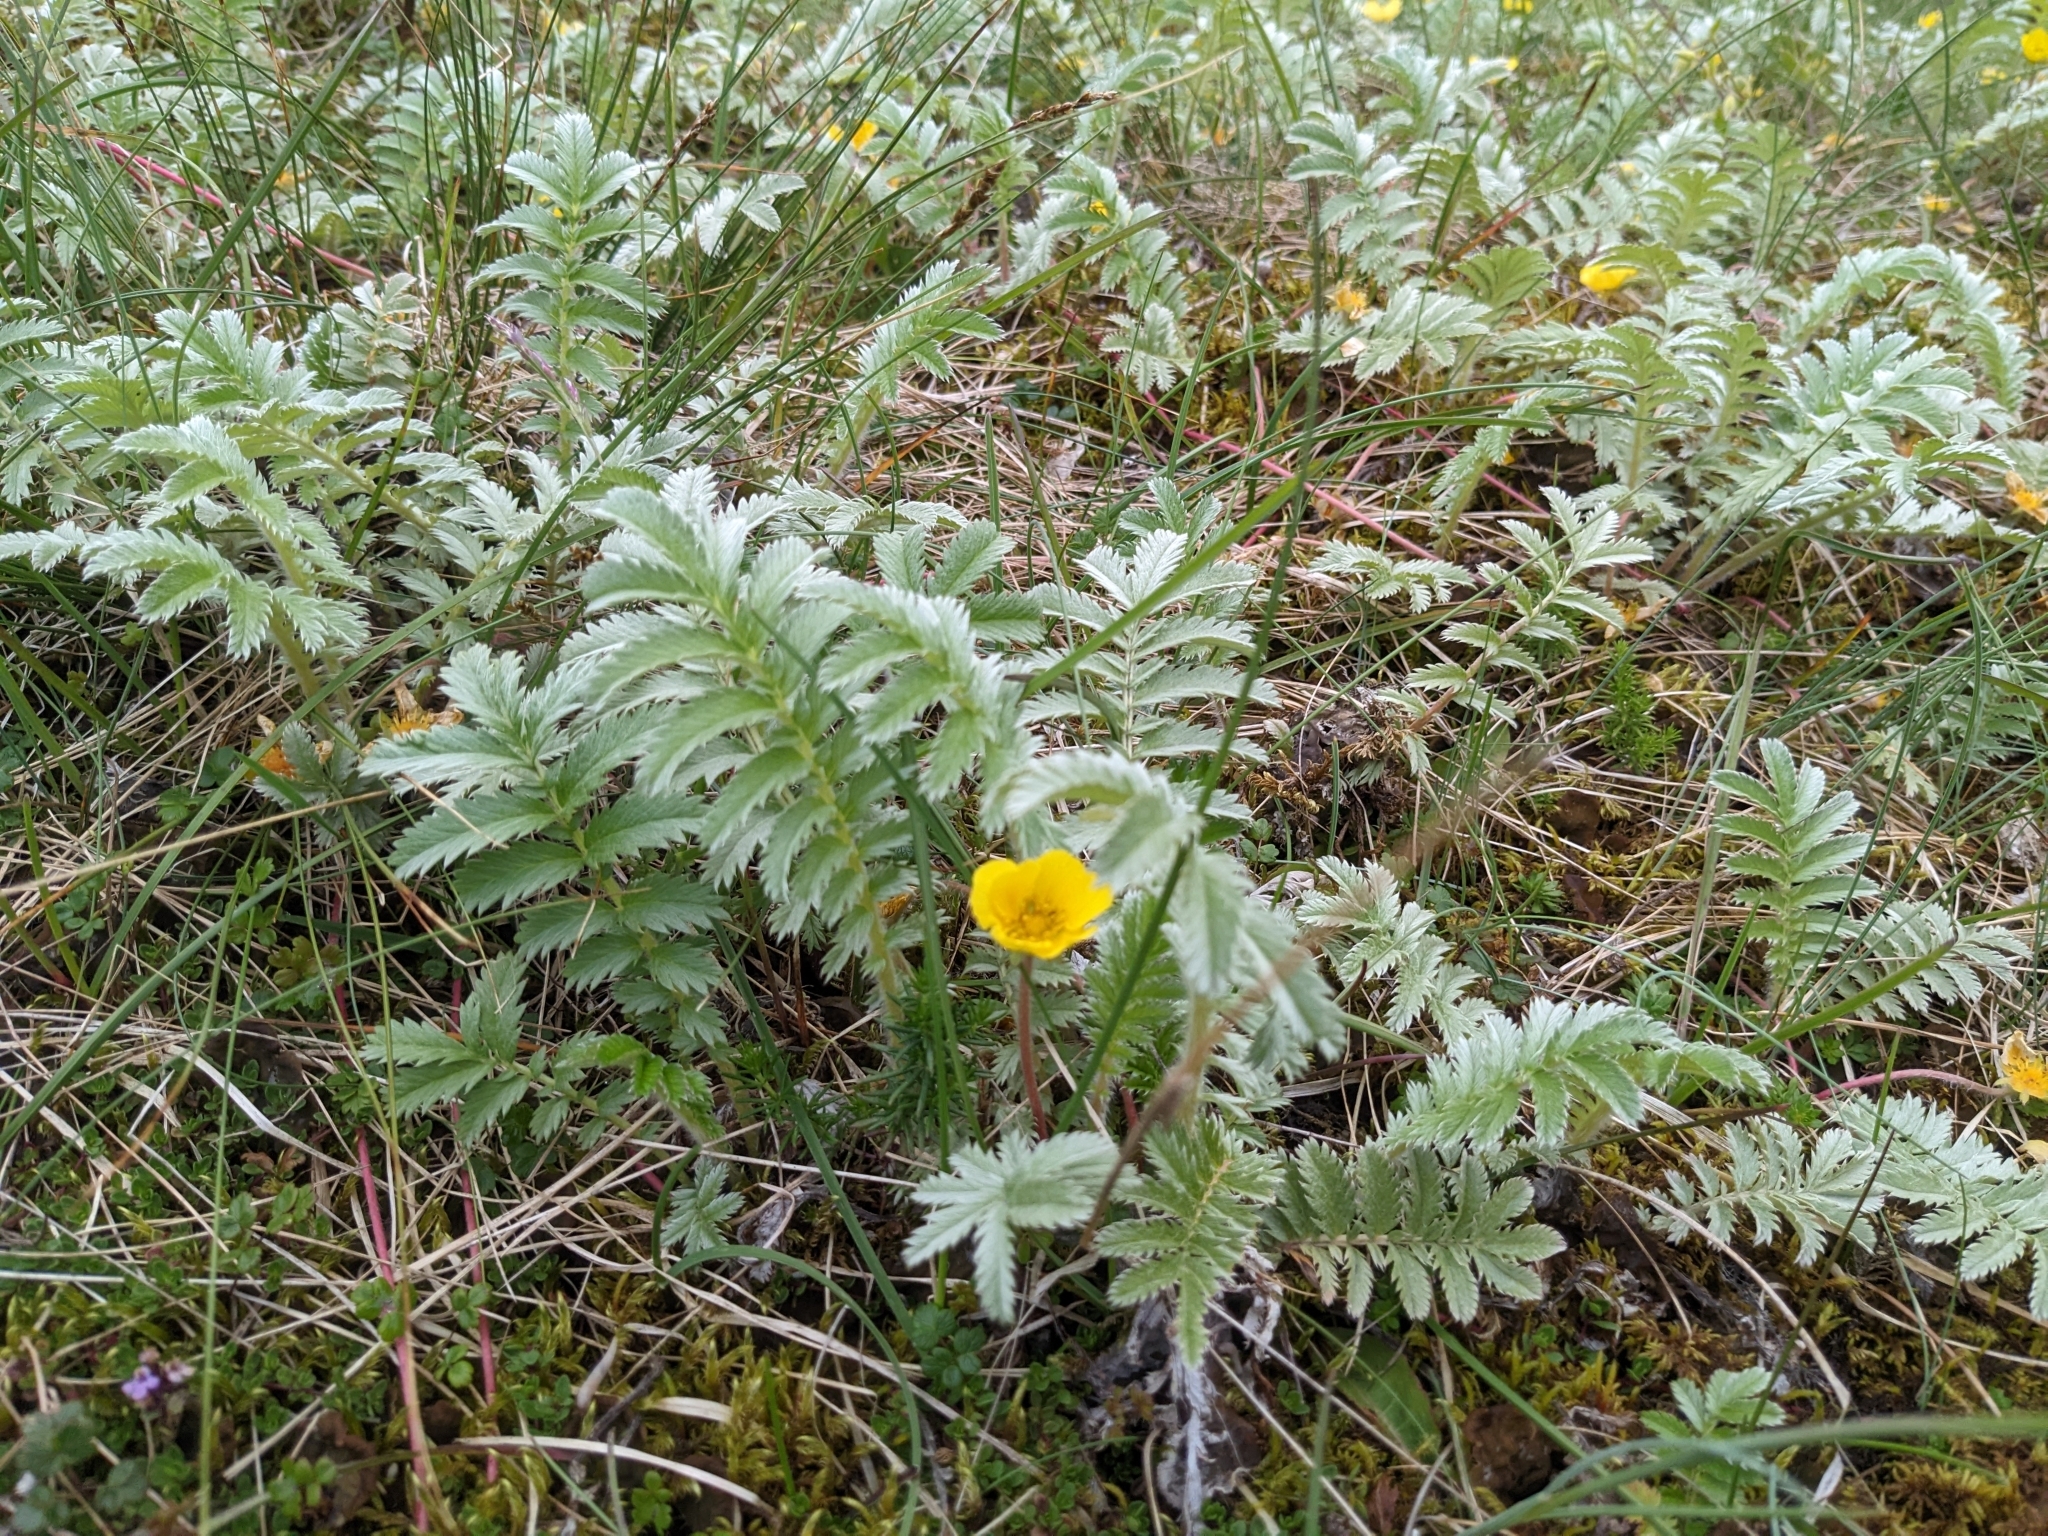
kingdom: Plantae
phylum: Tracheophyta
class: Magnoliopsida
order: Rosales
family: Rosaceae
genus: Argentina
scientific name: Argentina anserina
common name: Common silverweed
